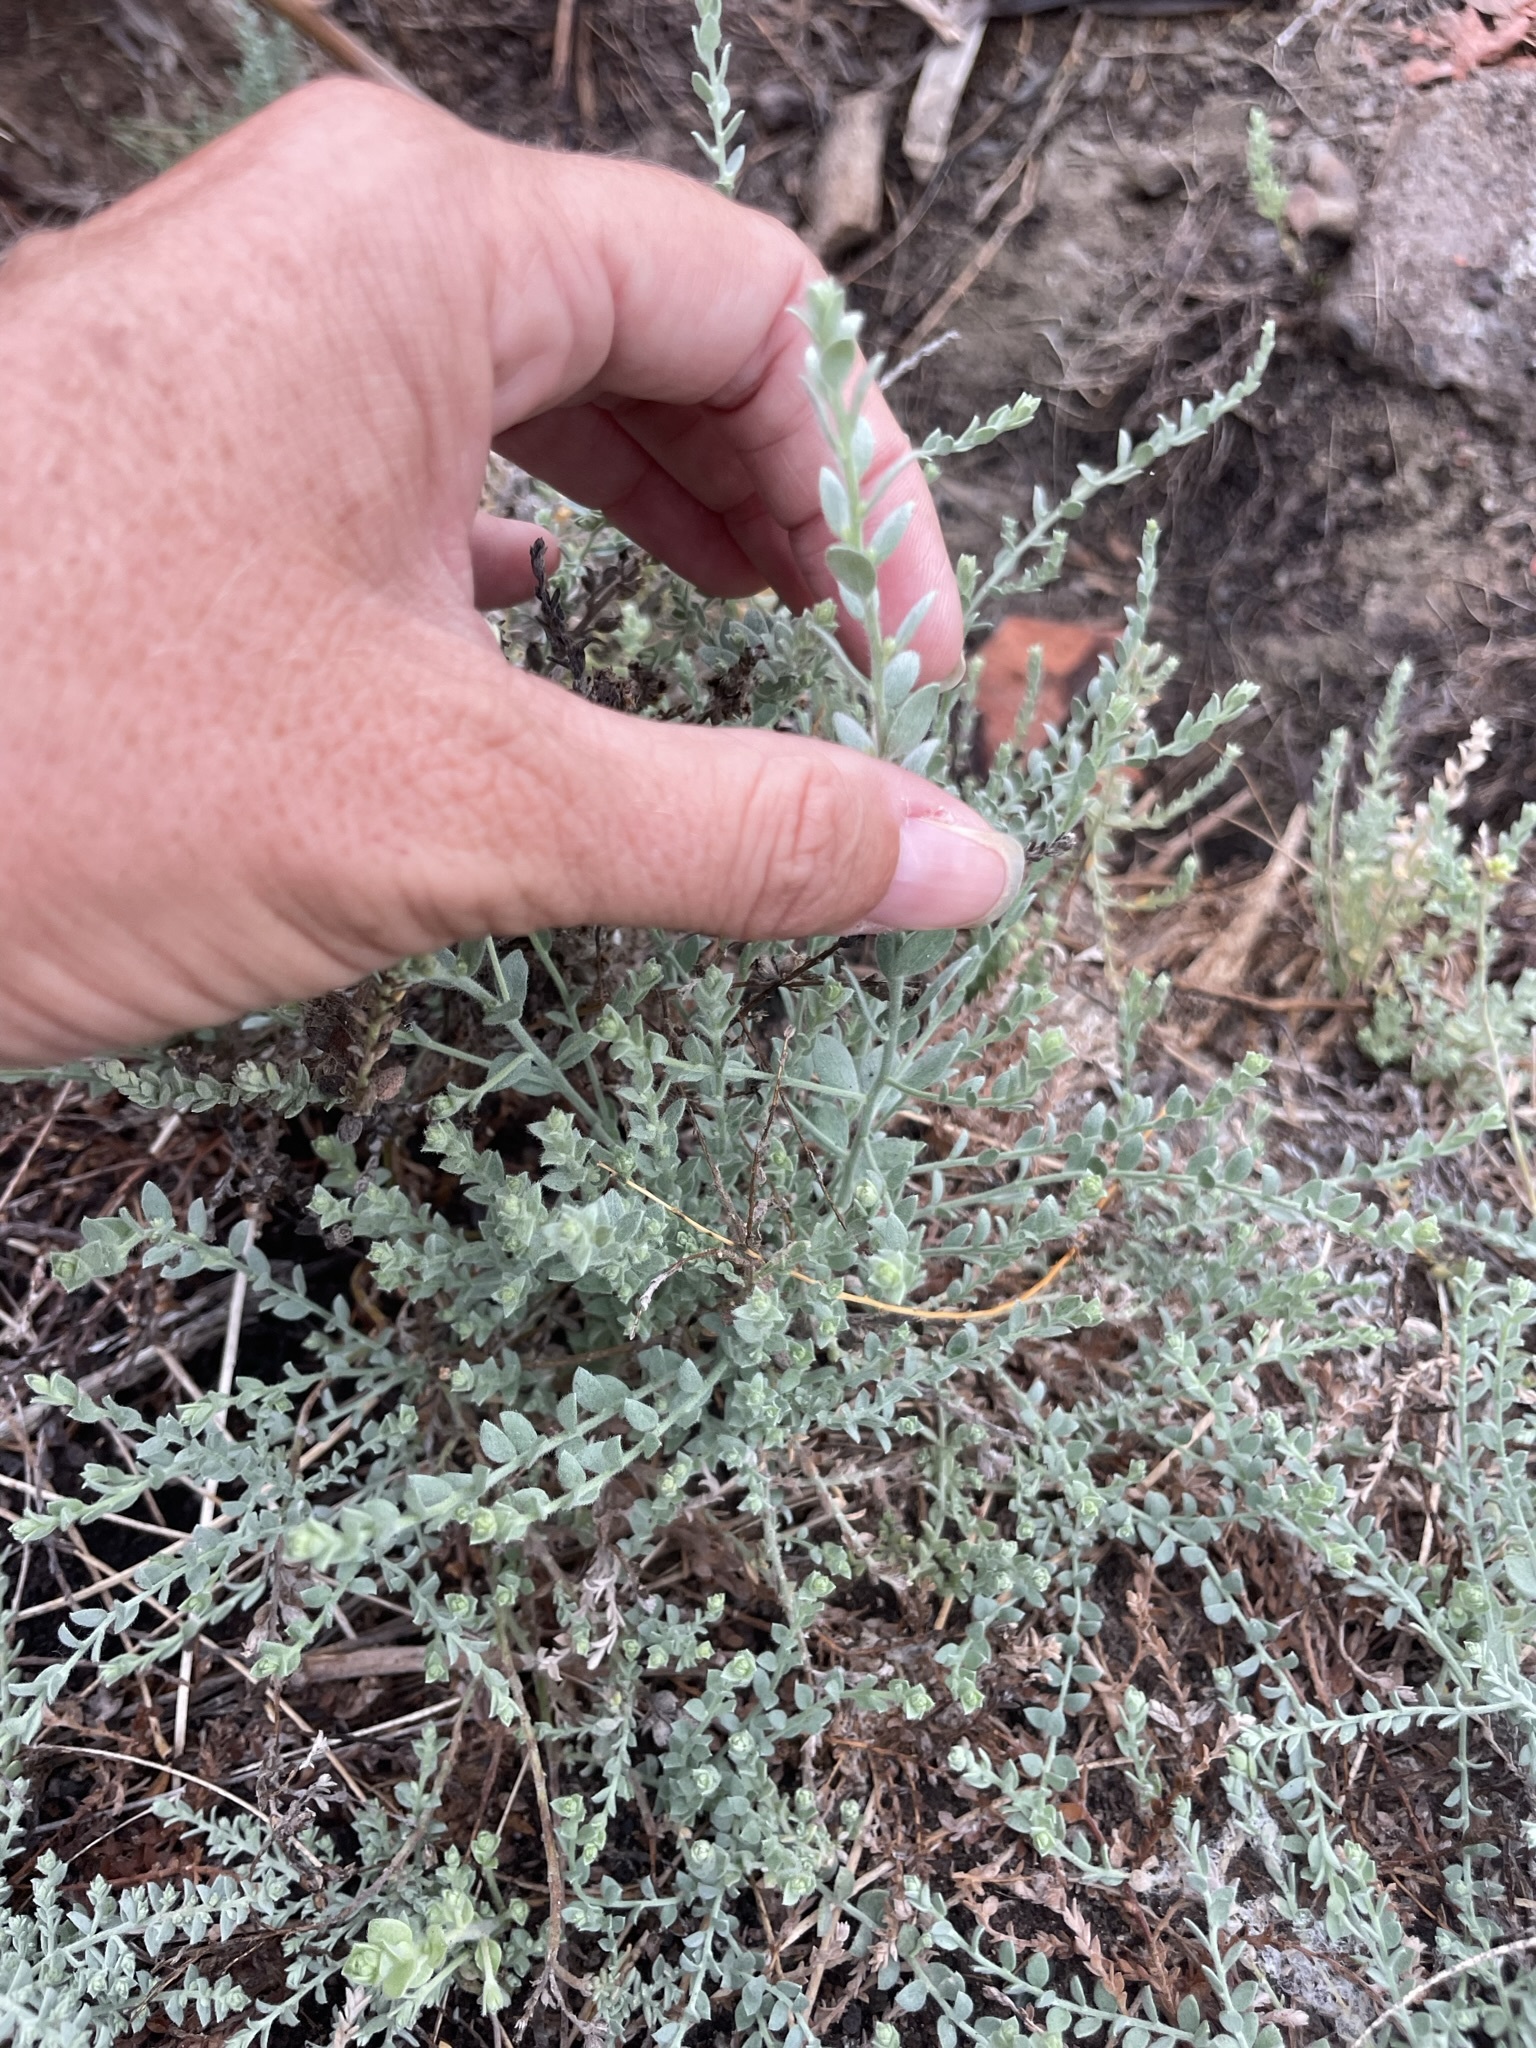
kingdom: Plantae
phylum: Tracheophyta
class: Magnoliopsida
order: Solanales
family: Convolvulaceae
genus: Cressa
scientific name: Cressa truxillensis
